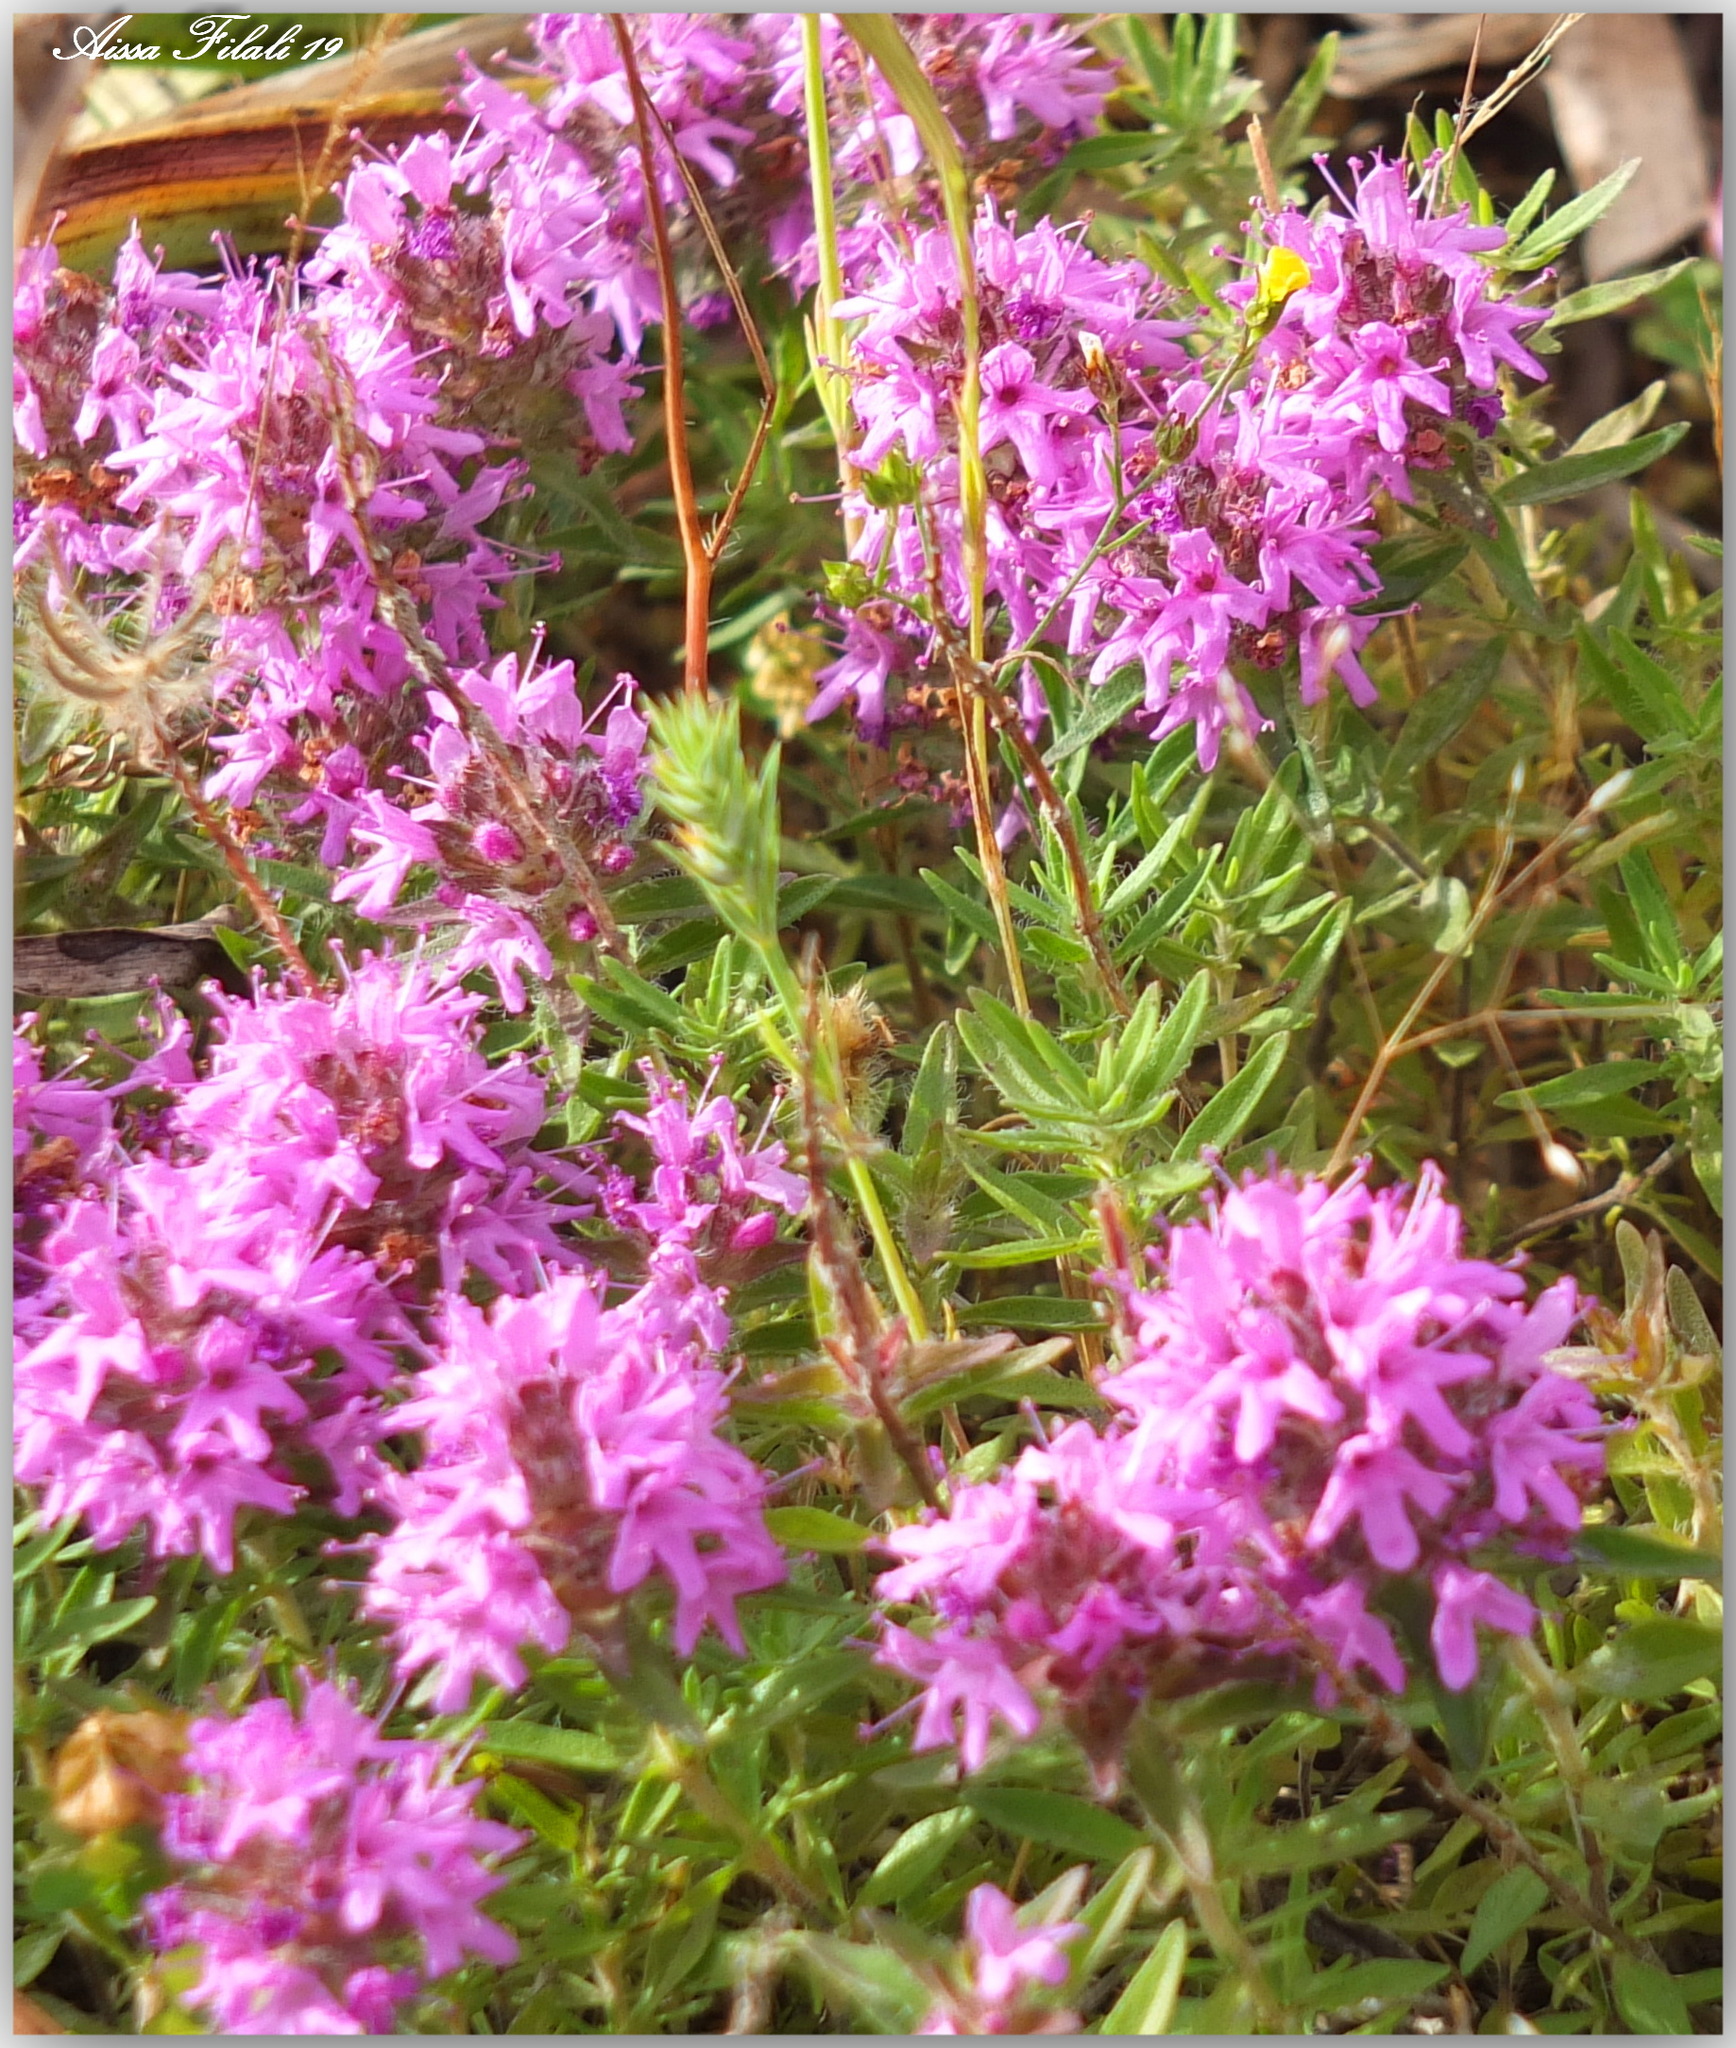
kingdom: Plantae
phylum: Tracheophyta
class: Magnoliopsida
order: Lamiales
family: Lamiaceae
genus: Thymus
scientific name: Thymus numidicus
